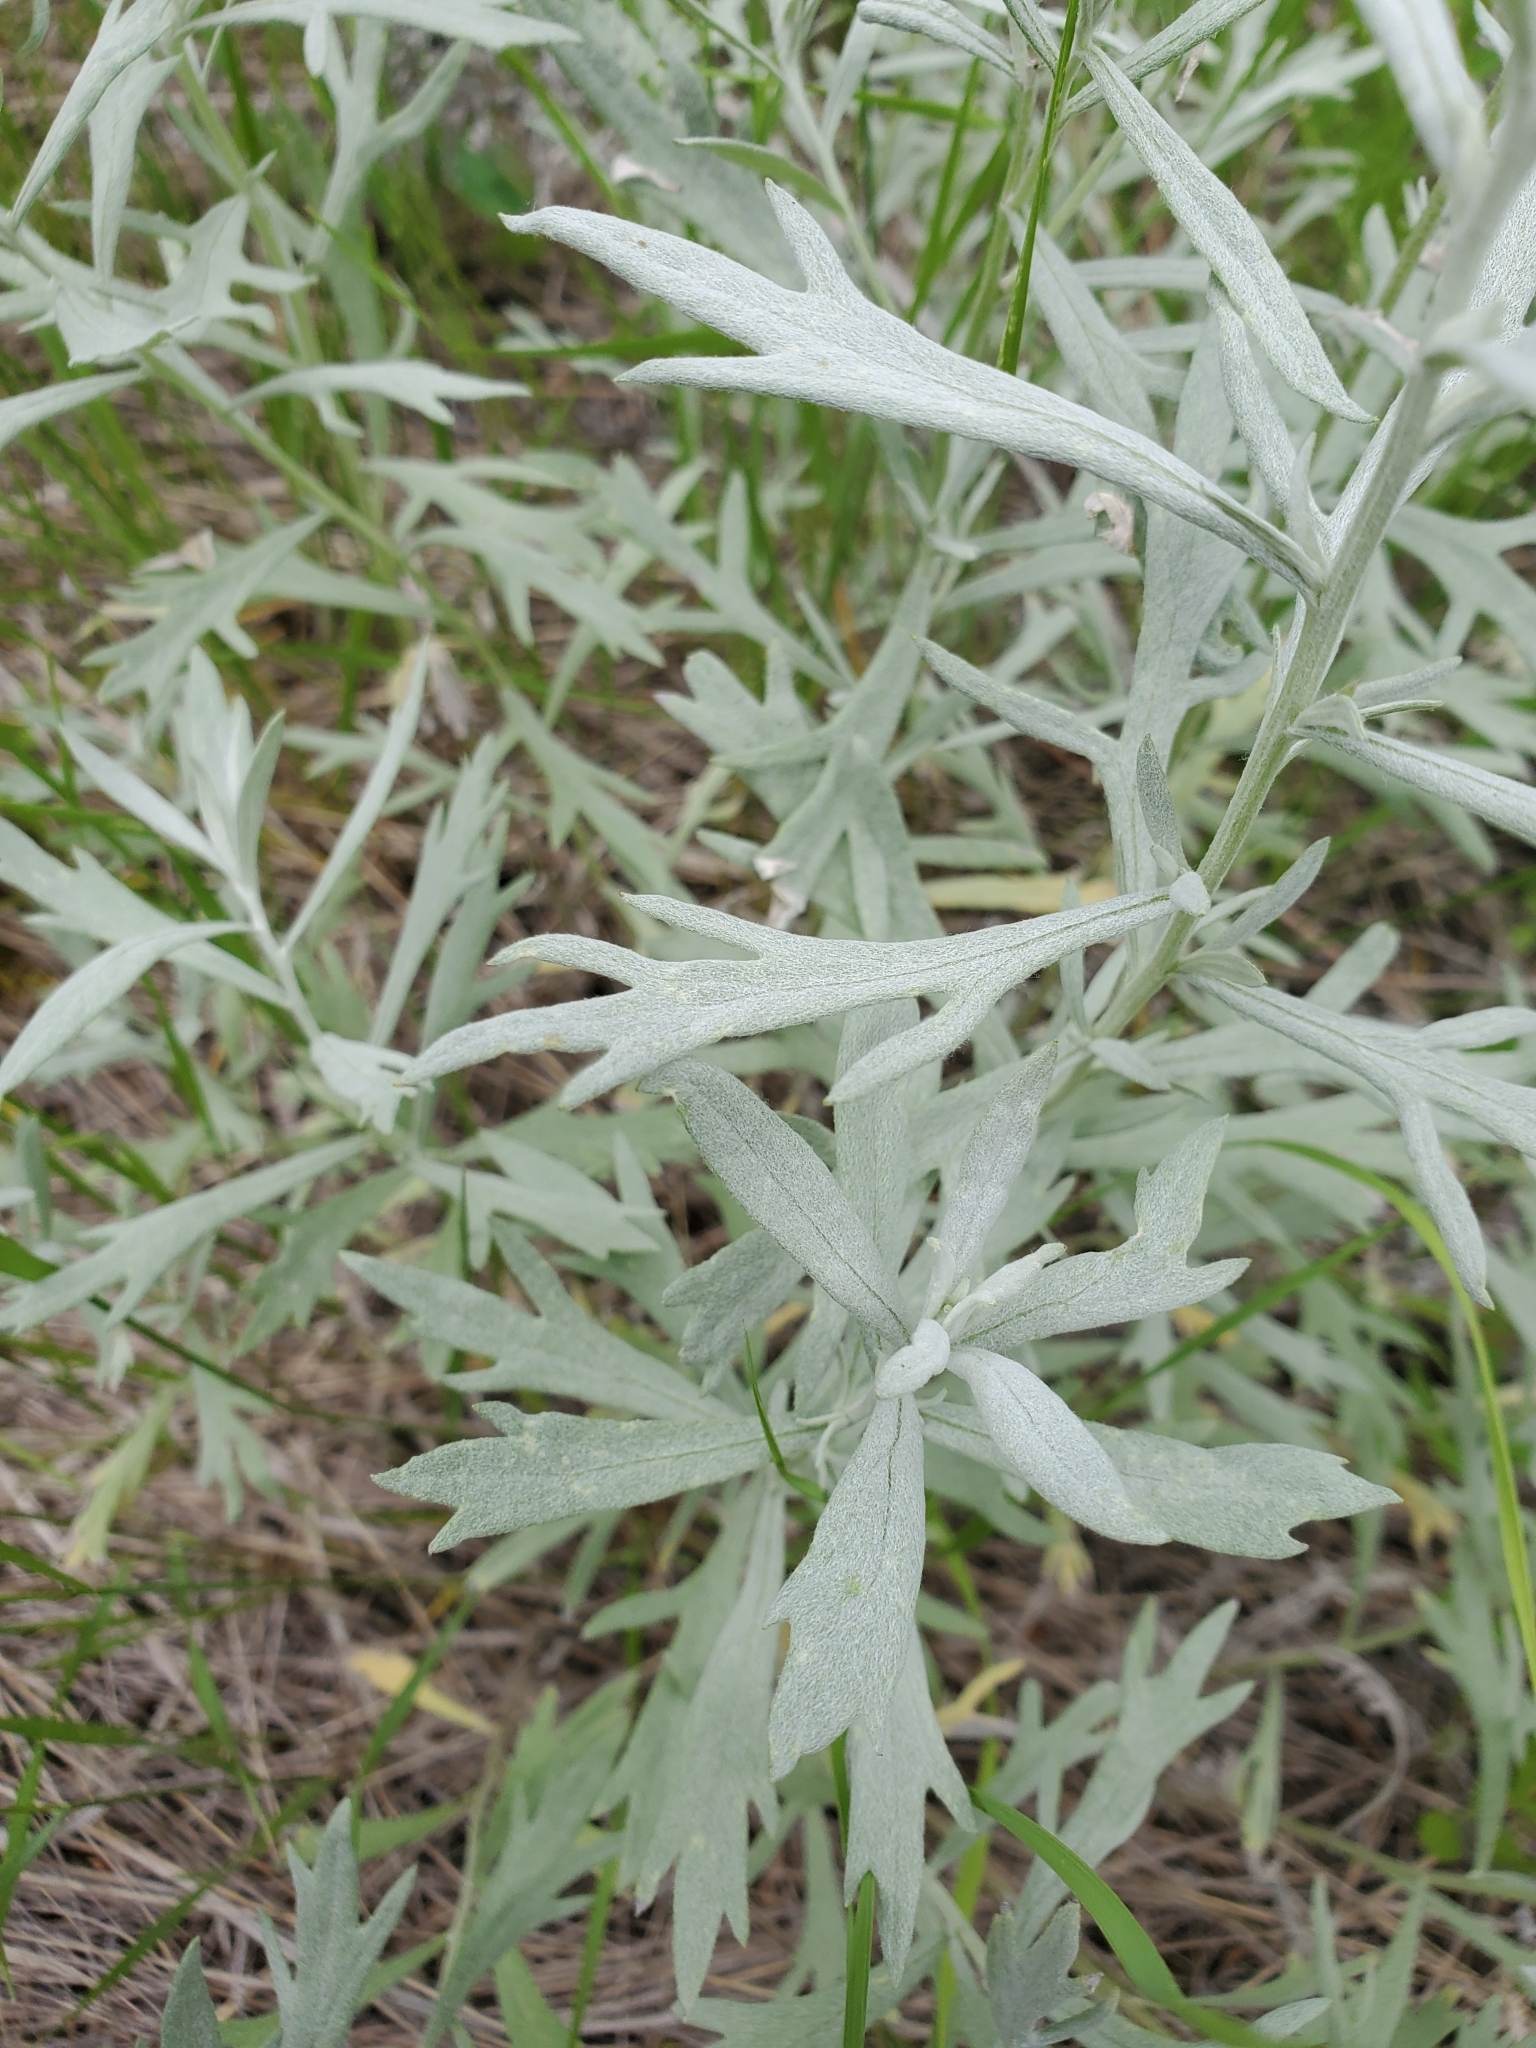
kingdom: Plantae
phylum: Tracheophyta
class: Magnoliopsida
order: Asterales
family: Asteraceae
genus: Artemisia
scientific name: Artemisia ludoviciana
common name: Western mugwort
